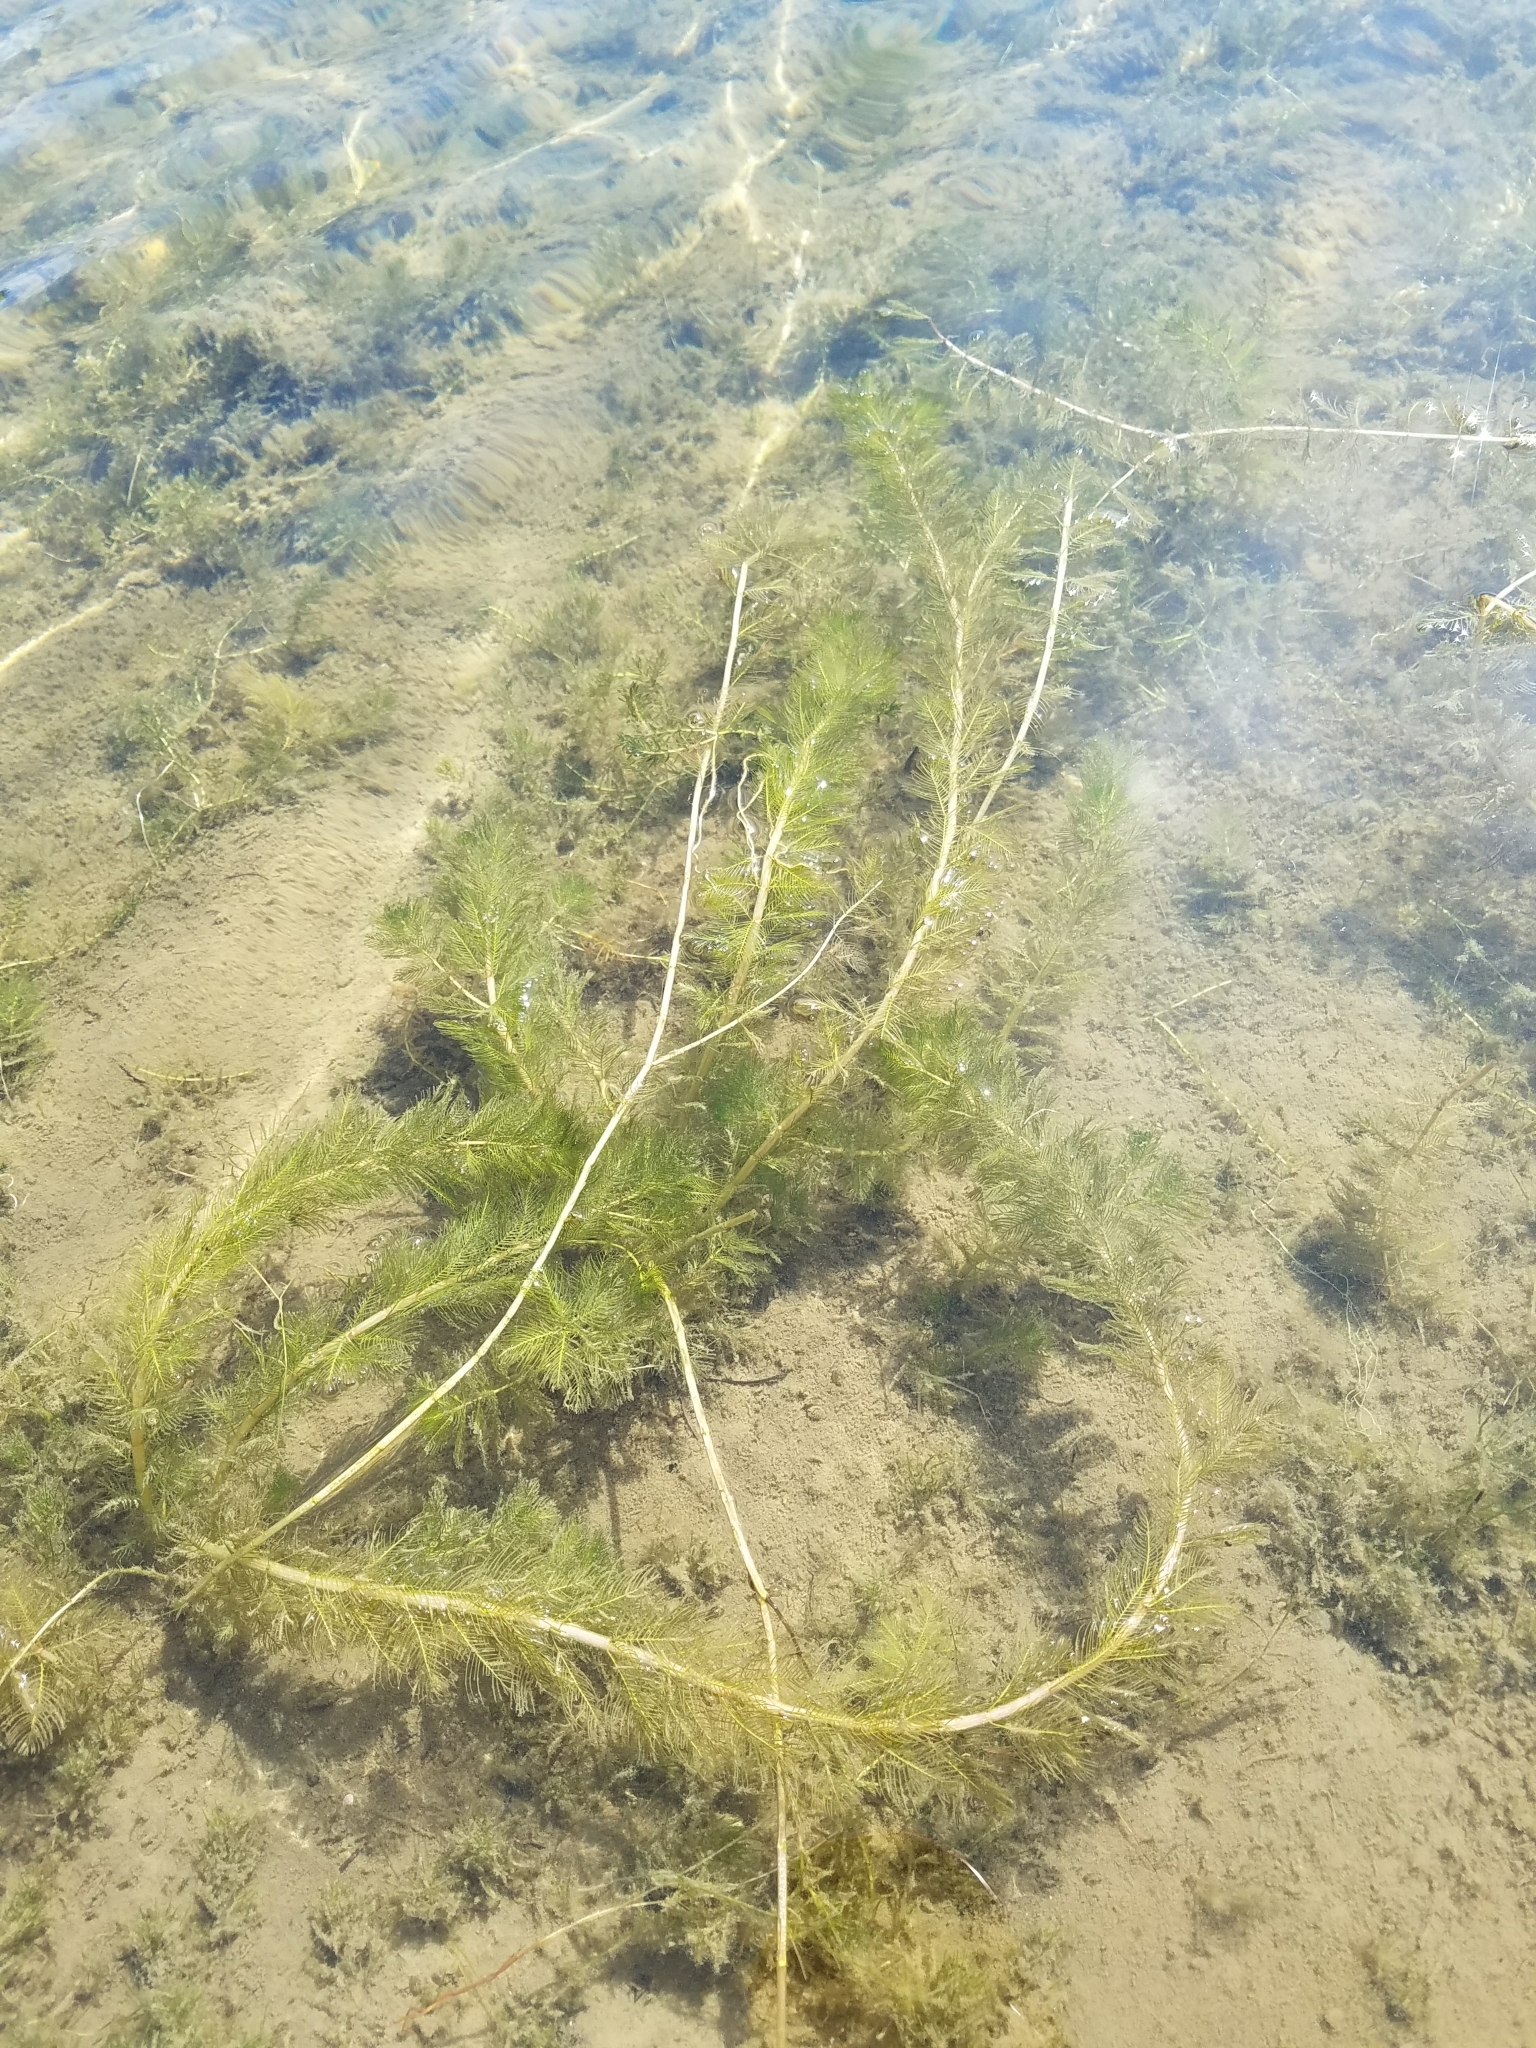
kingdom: Plantae
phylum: Tracheophyta
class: Magnoliopsida
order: Saxifragales
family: Haloragaceae
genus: Myriophyllum
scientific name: Myriophyllum spicatum
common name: Spiked water-milfoil
